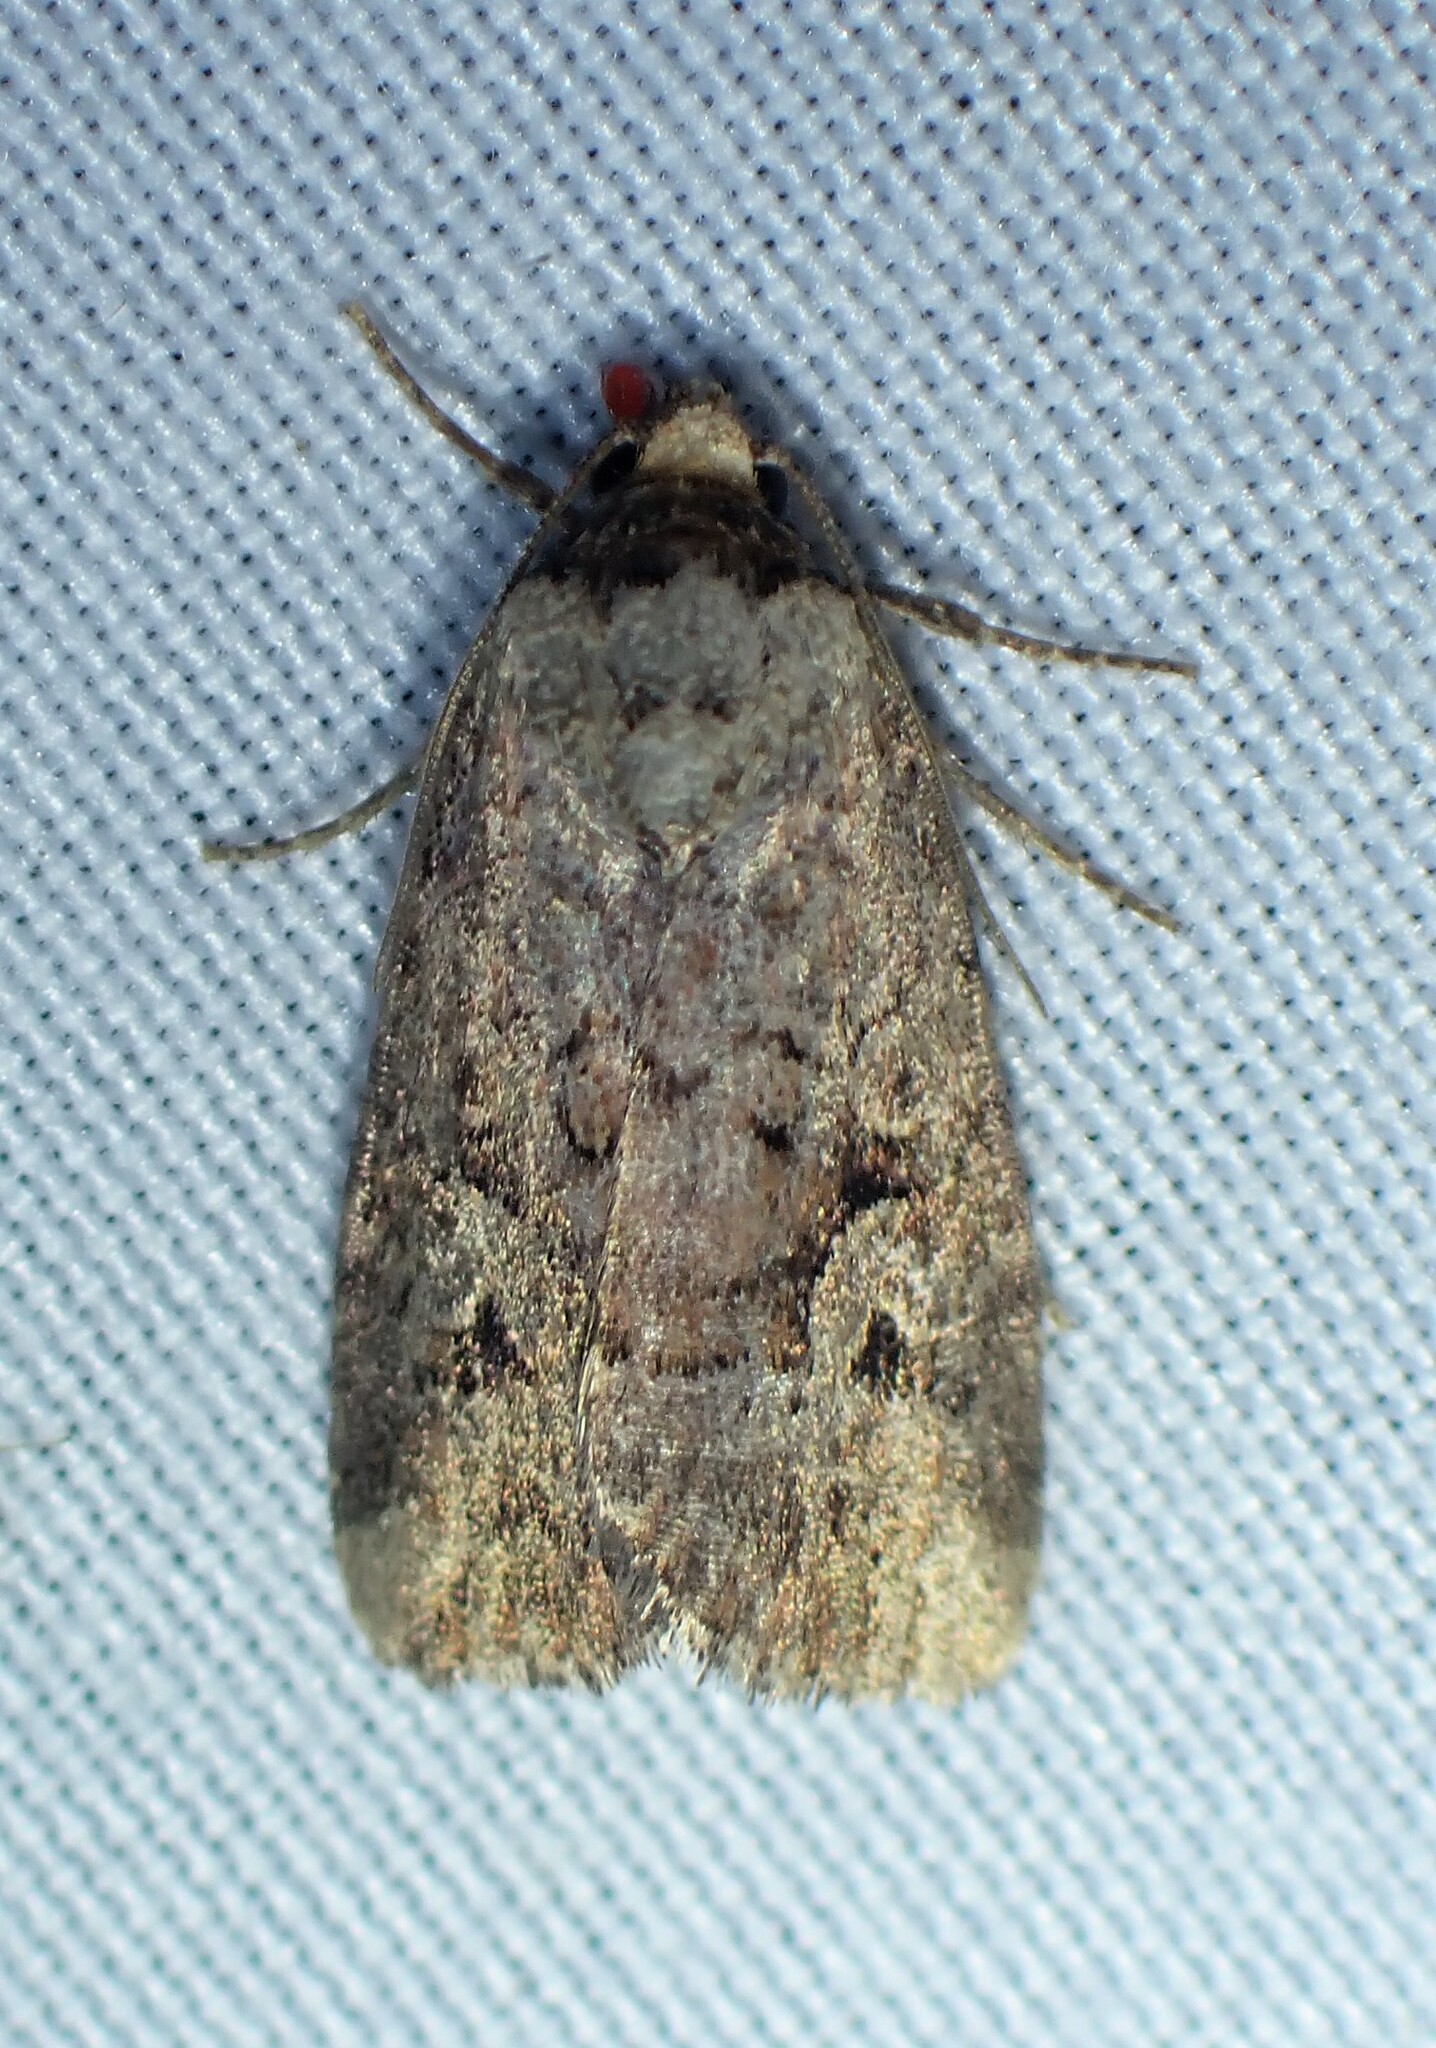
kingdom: Animalia
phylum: Arthropoda
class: Insecta
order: Lepidoptera
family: Noctuidae
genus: Elaphria
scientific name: Elaphria alapallida
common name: Pale-winged midget
